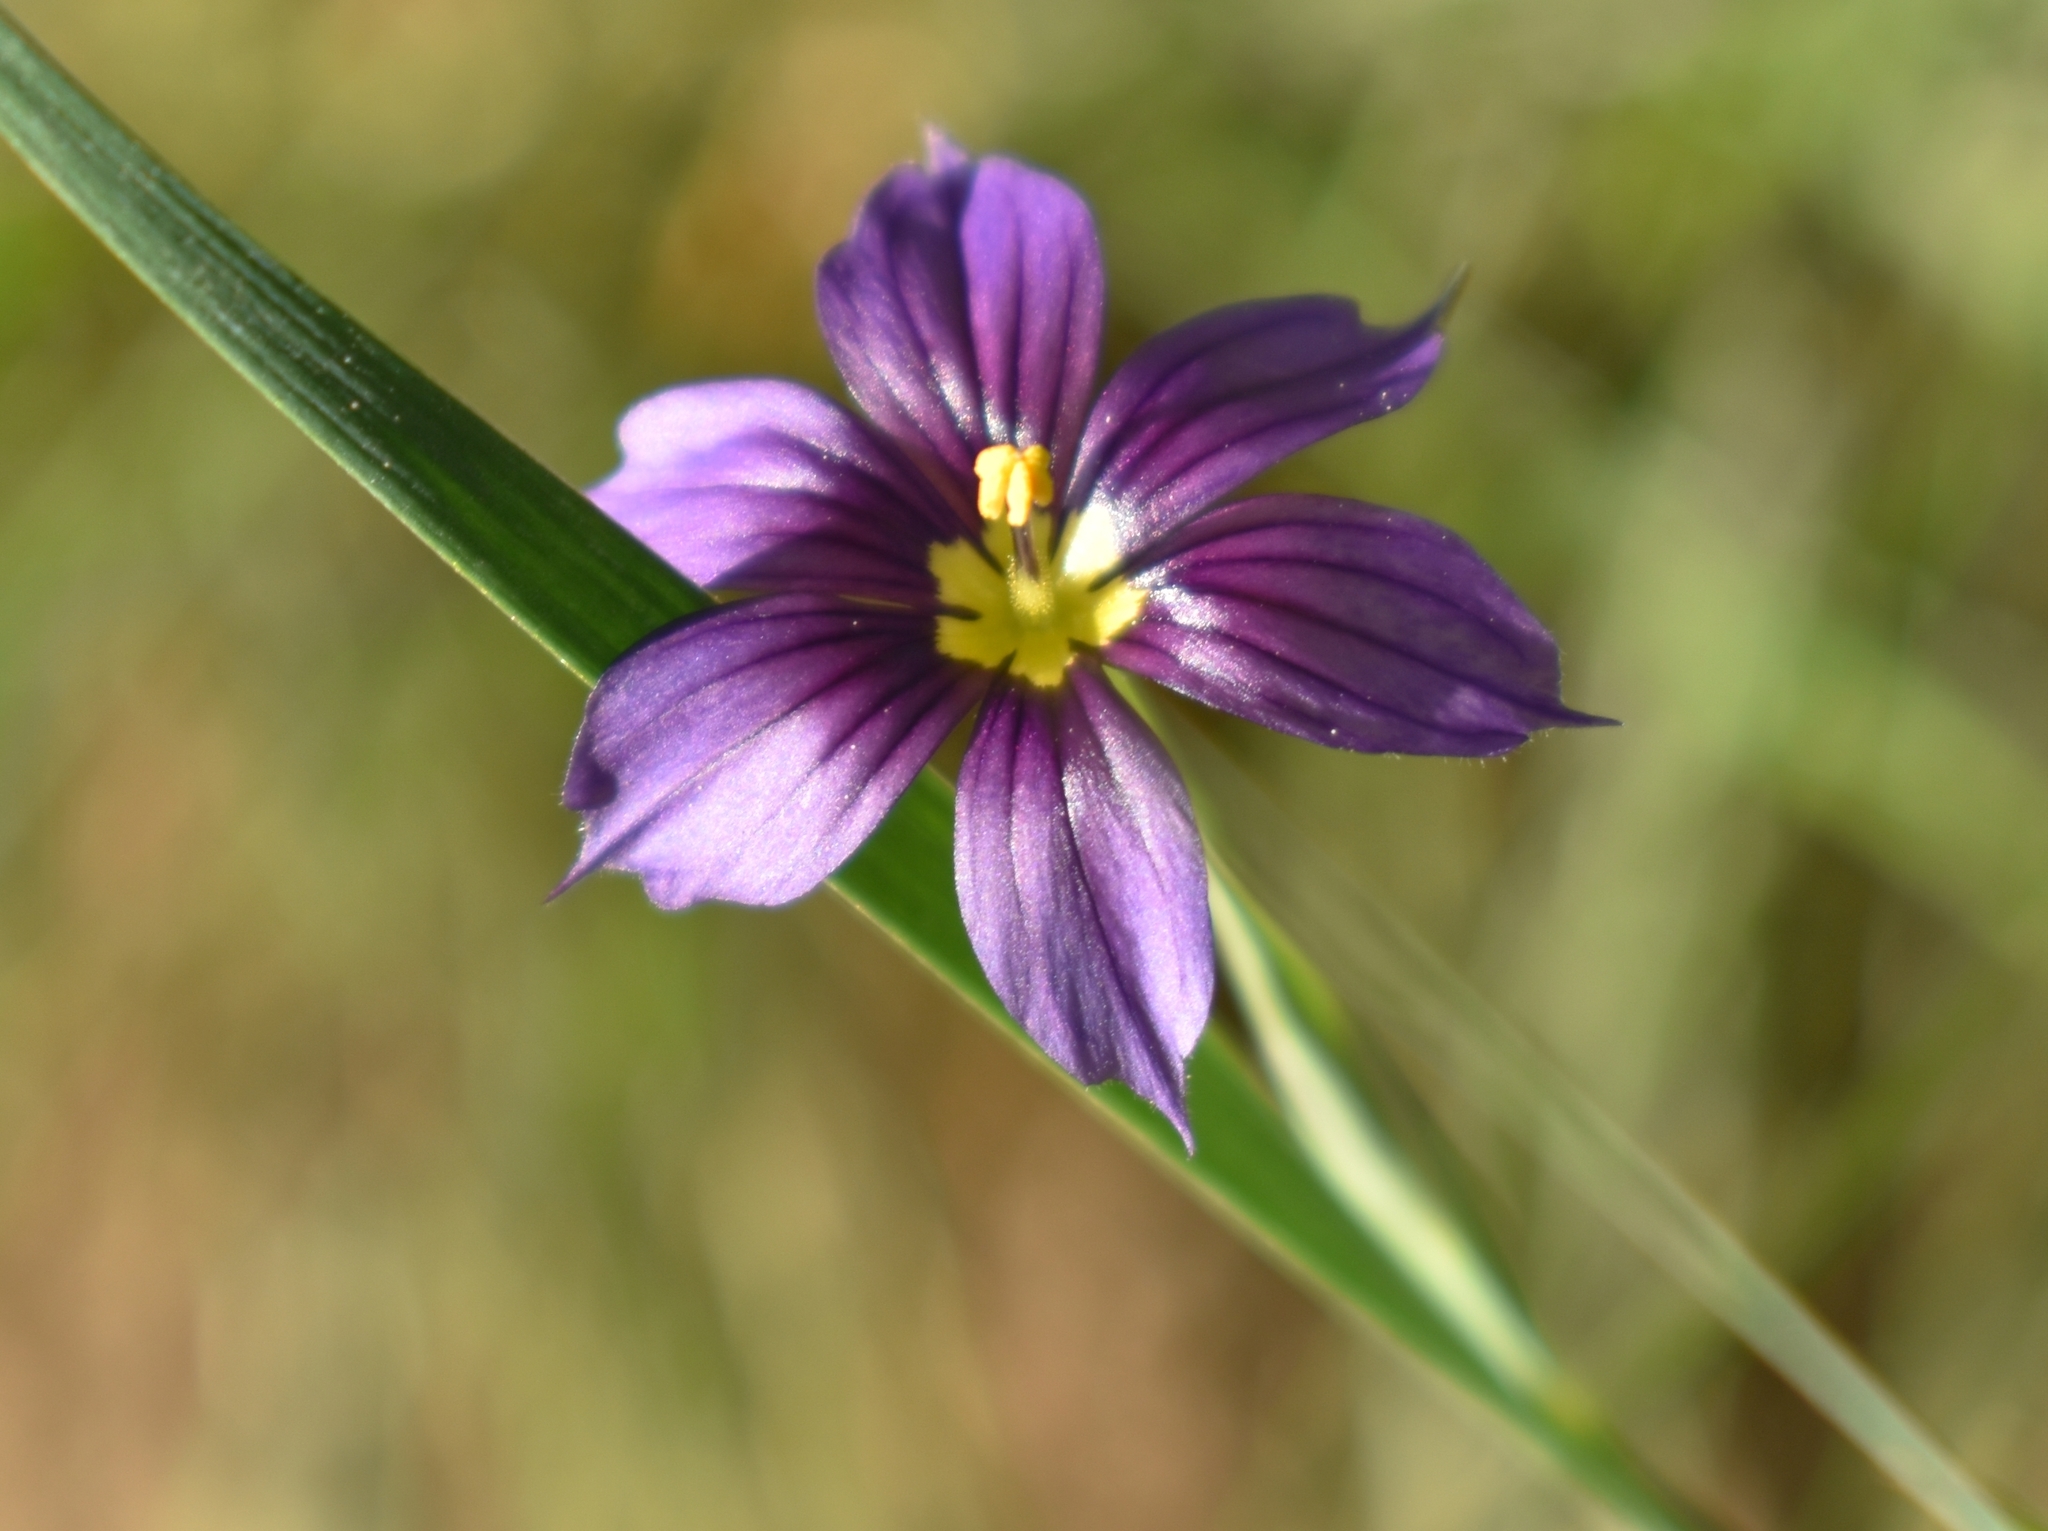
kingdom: Plantae
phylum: Tracheophyta
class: Liliopsida
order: Asparagales
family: Iridaceae
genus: Sisyrinchium
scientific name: Sisyrinchium bellum
